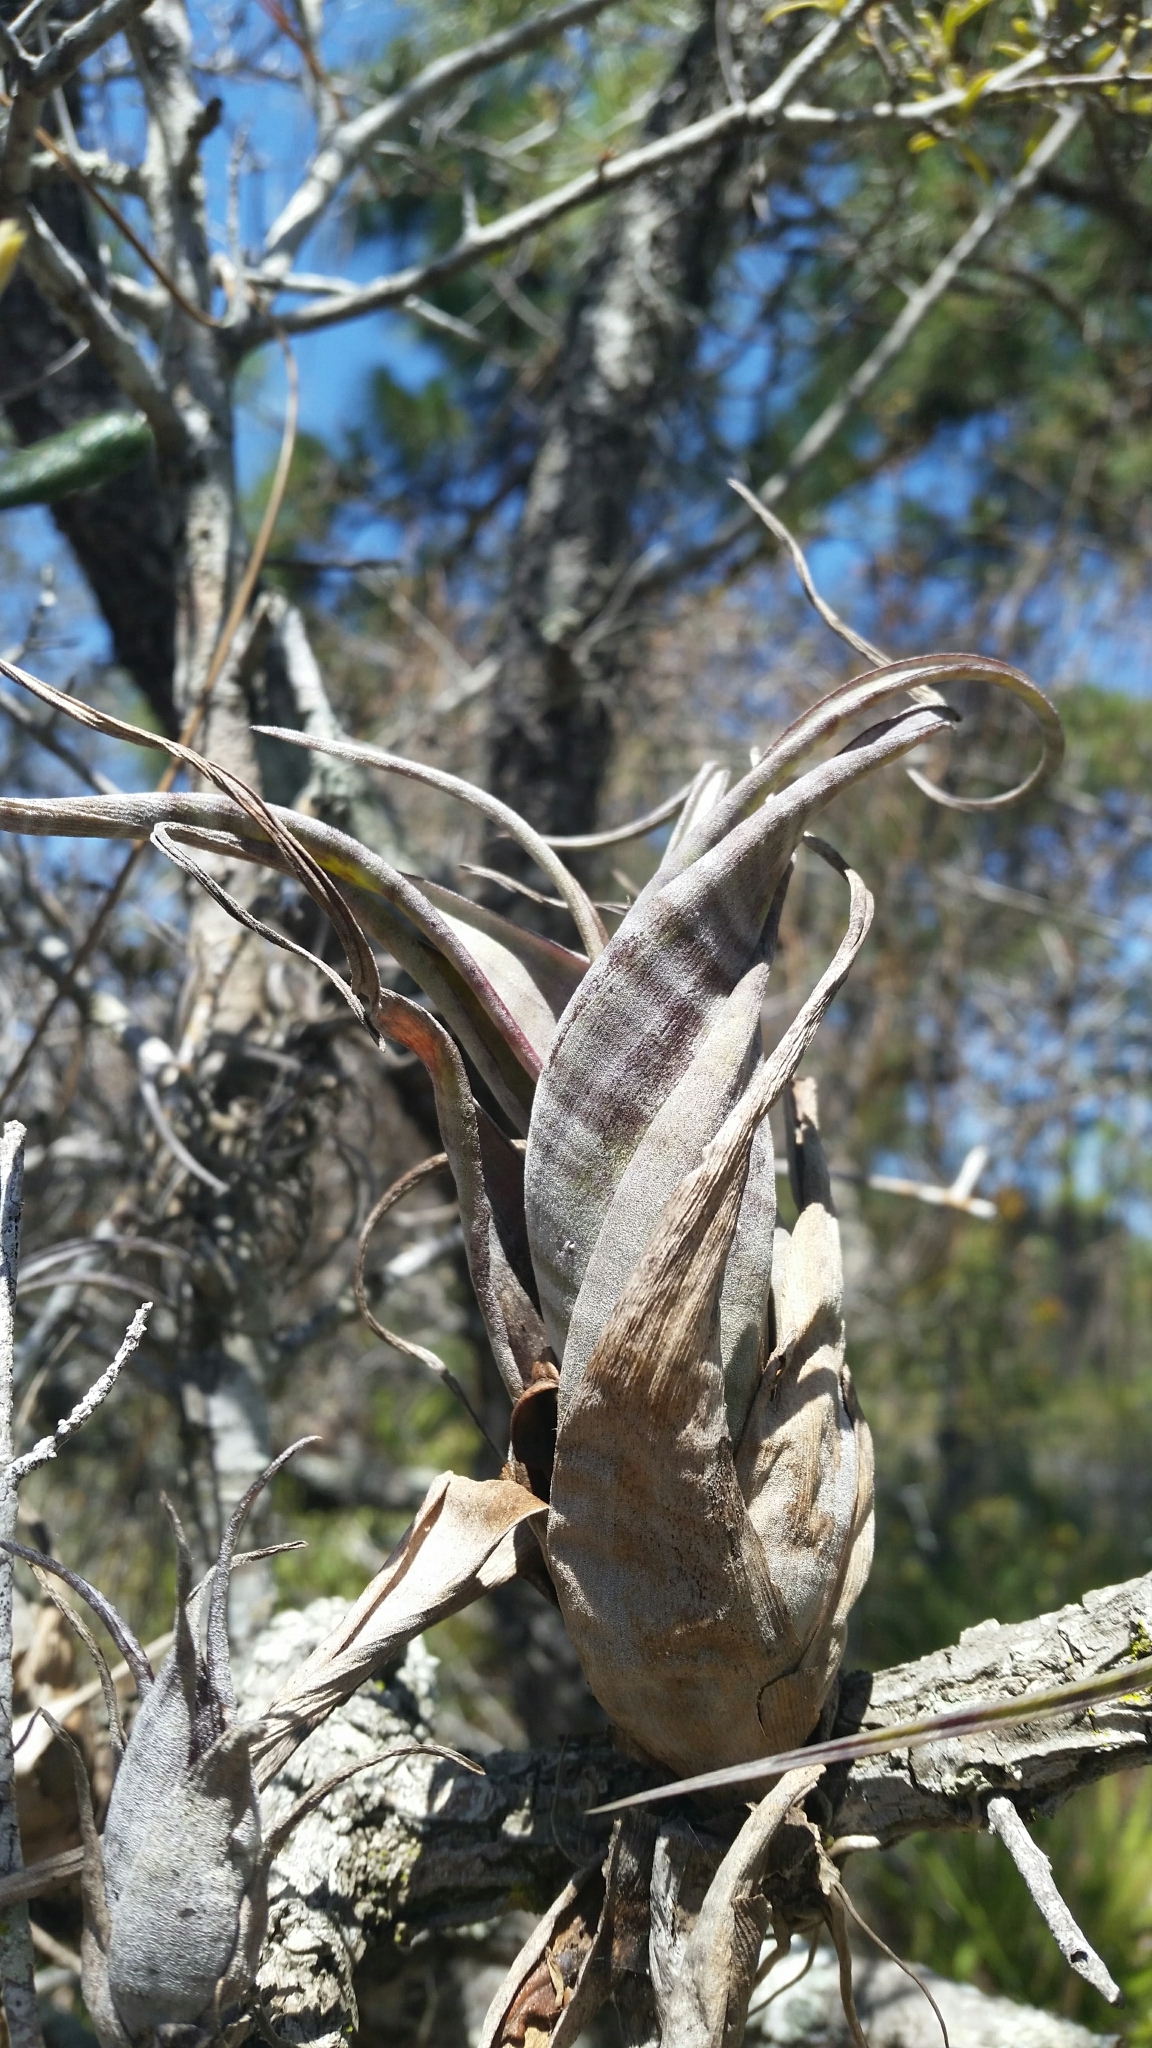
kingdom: Plantae
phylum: Tracheophyta
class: Liliopsida
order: Poales
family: Bromeliaceae
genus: Tillandsia
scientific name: Tillandsia flexuosa
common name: Banded airplant
